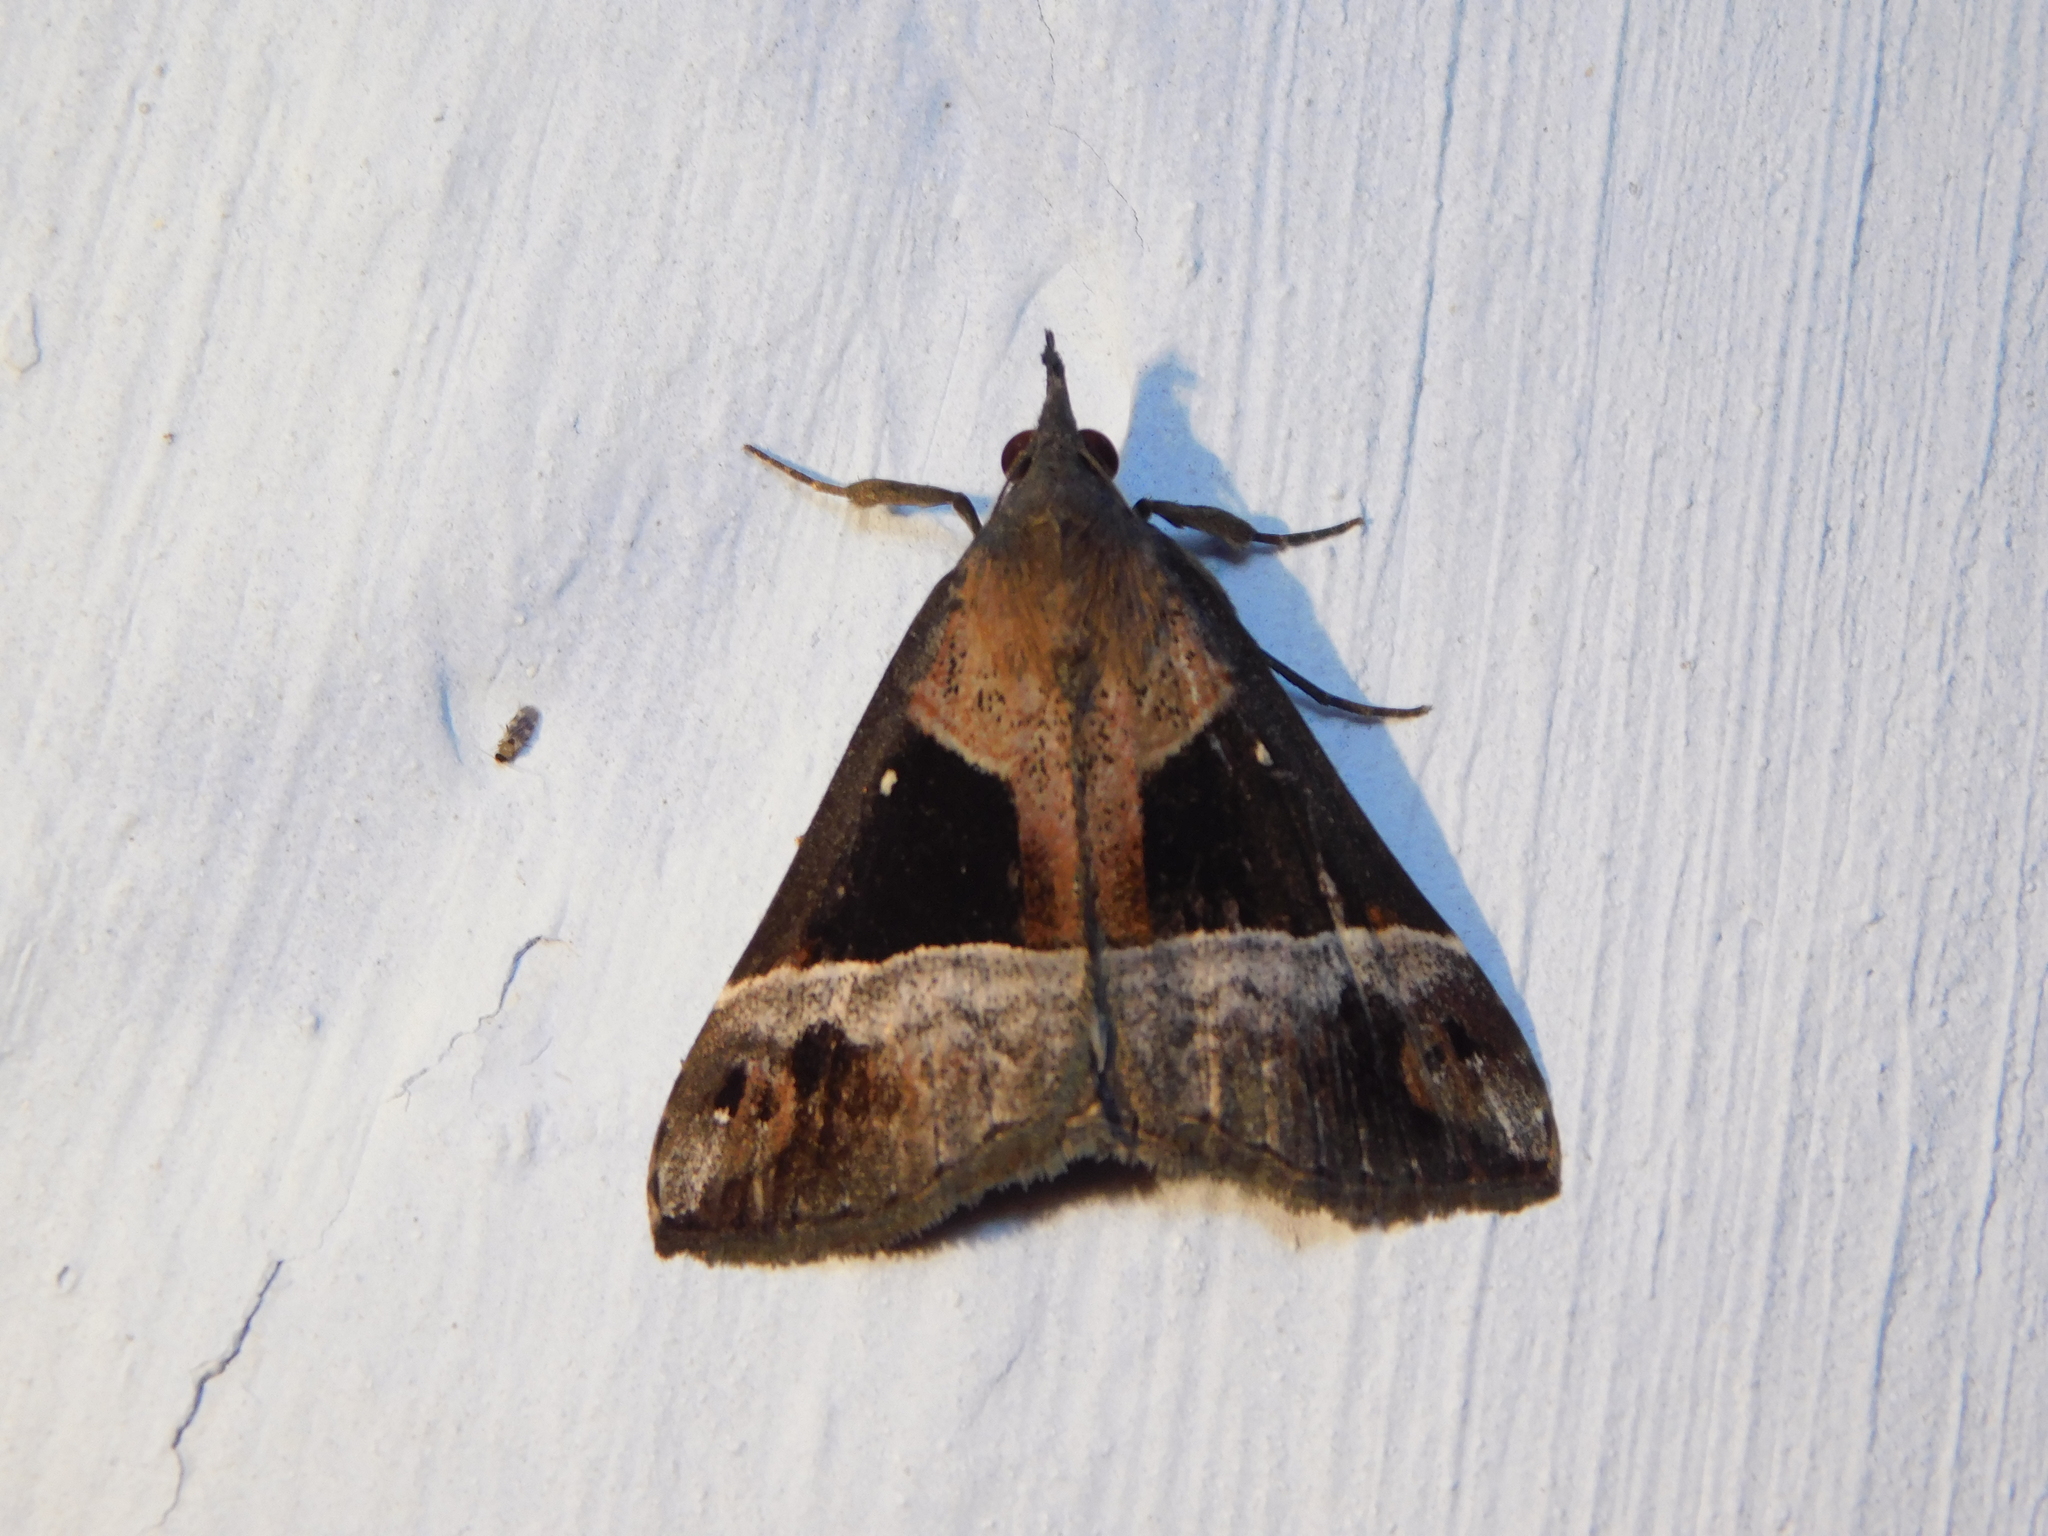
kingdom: Animalia
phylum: Arthropoda
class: Insecta
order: Lepidoptera
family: Erebidae
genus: Hypena
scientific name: Hypena
